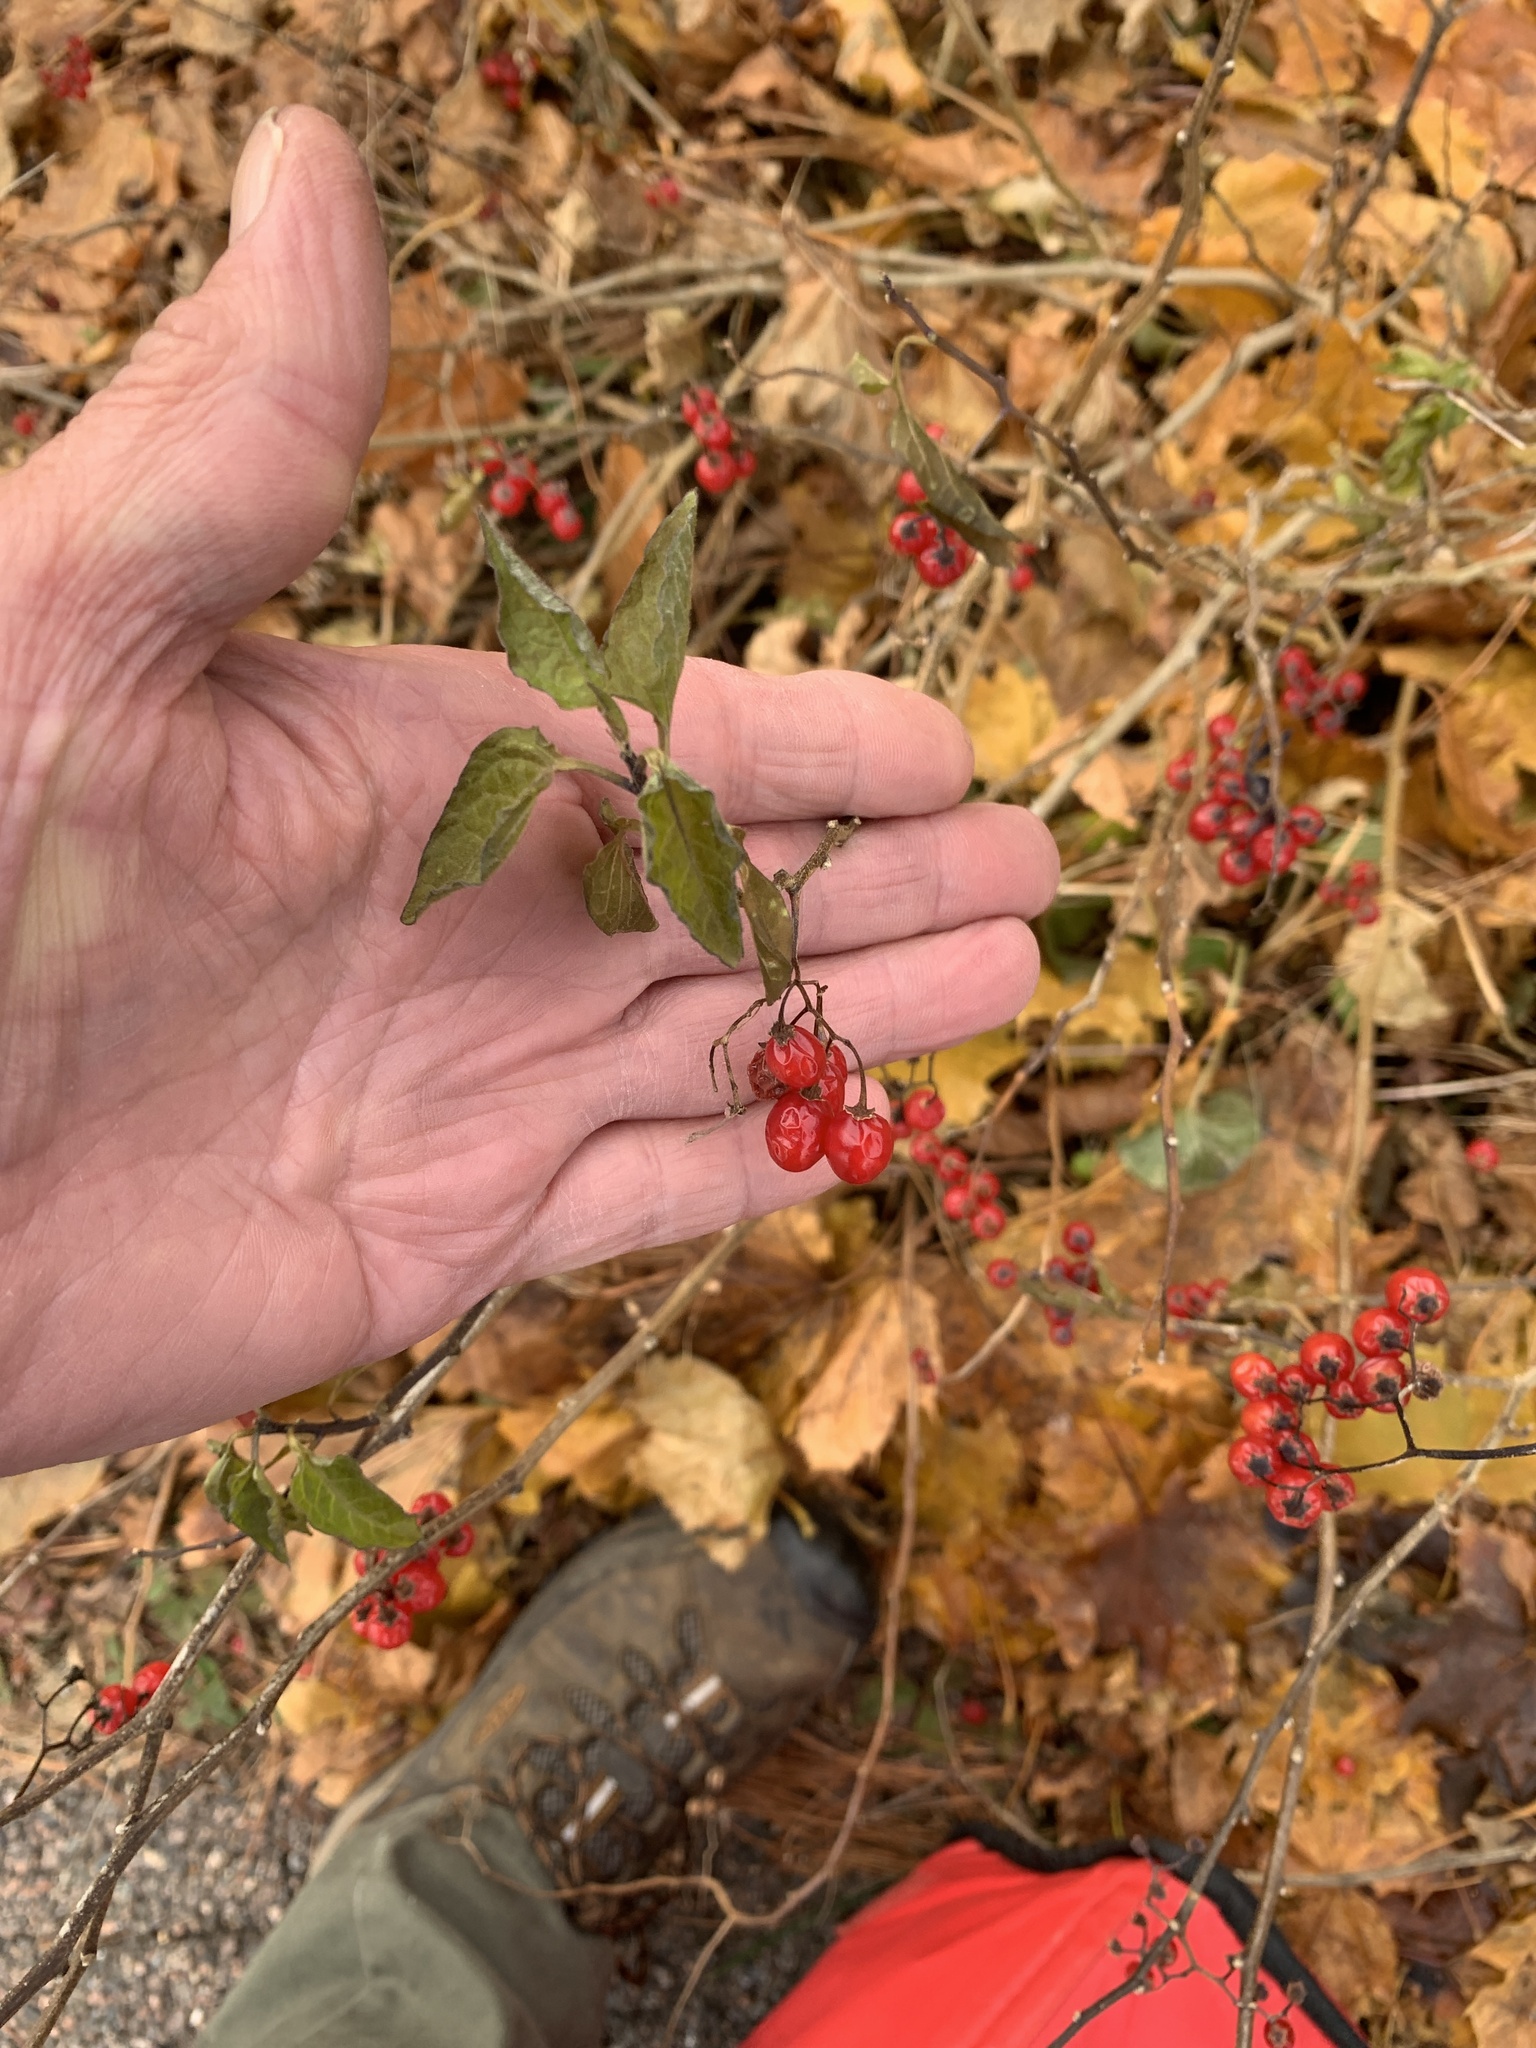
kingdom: Plantae
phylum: Tracheophyta
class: Magnoliopsida
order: Solanales
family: Solanaceae
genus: Solanum
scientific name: Solanum dulcamara
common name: Climbing nightshade
